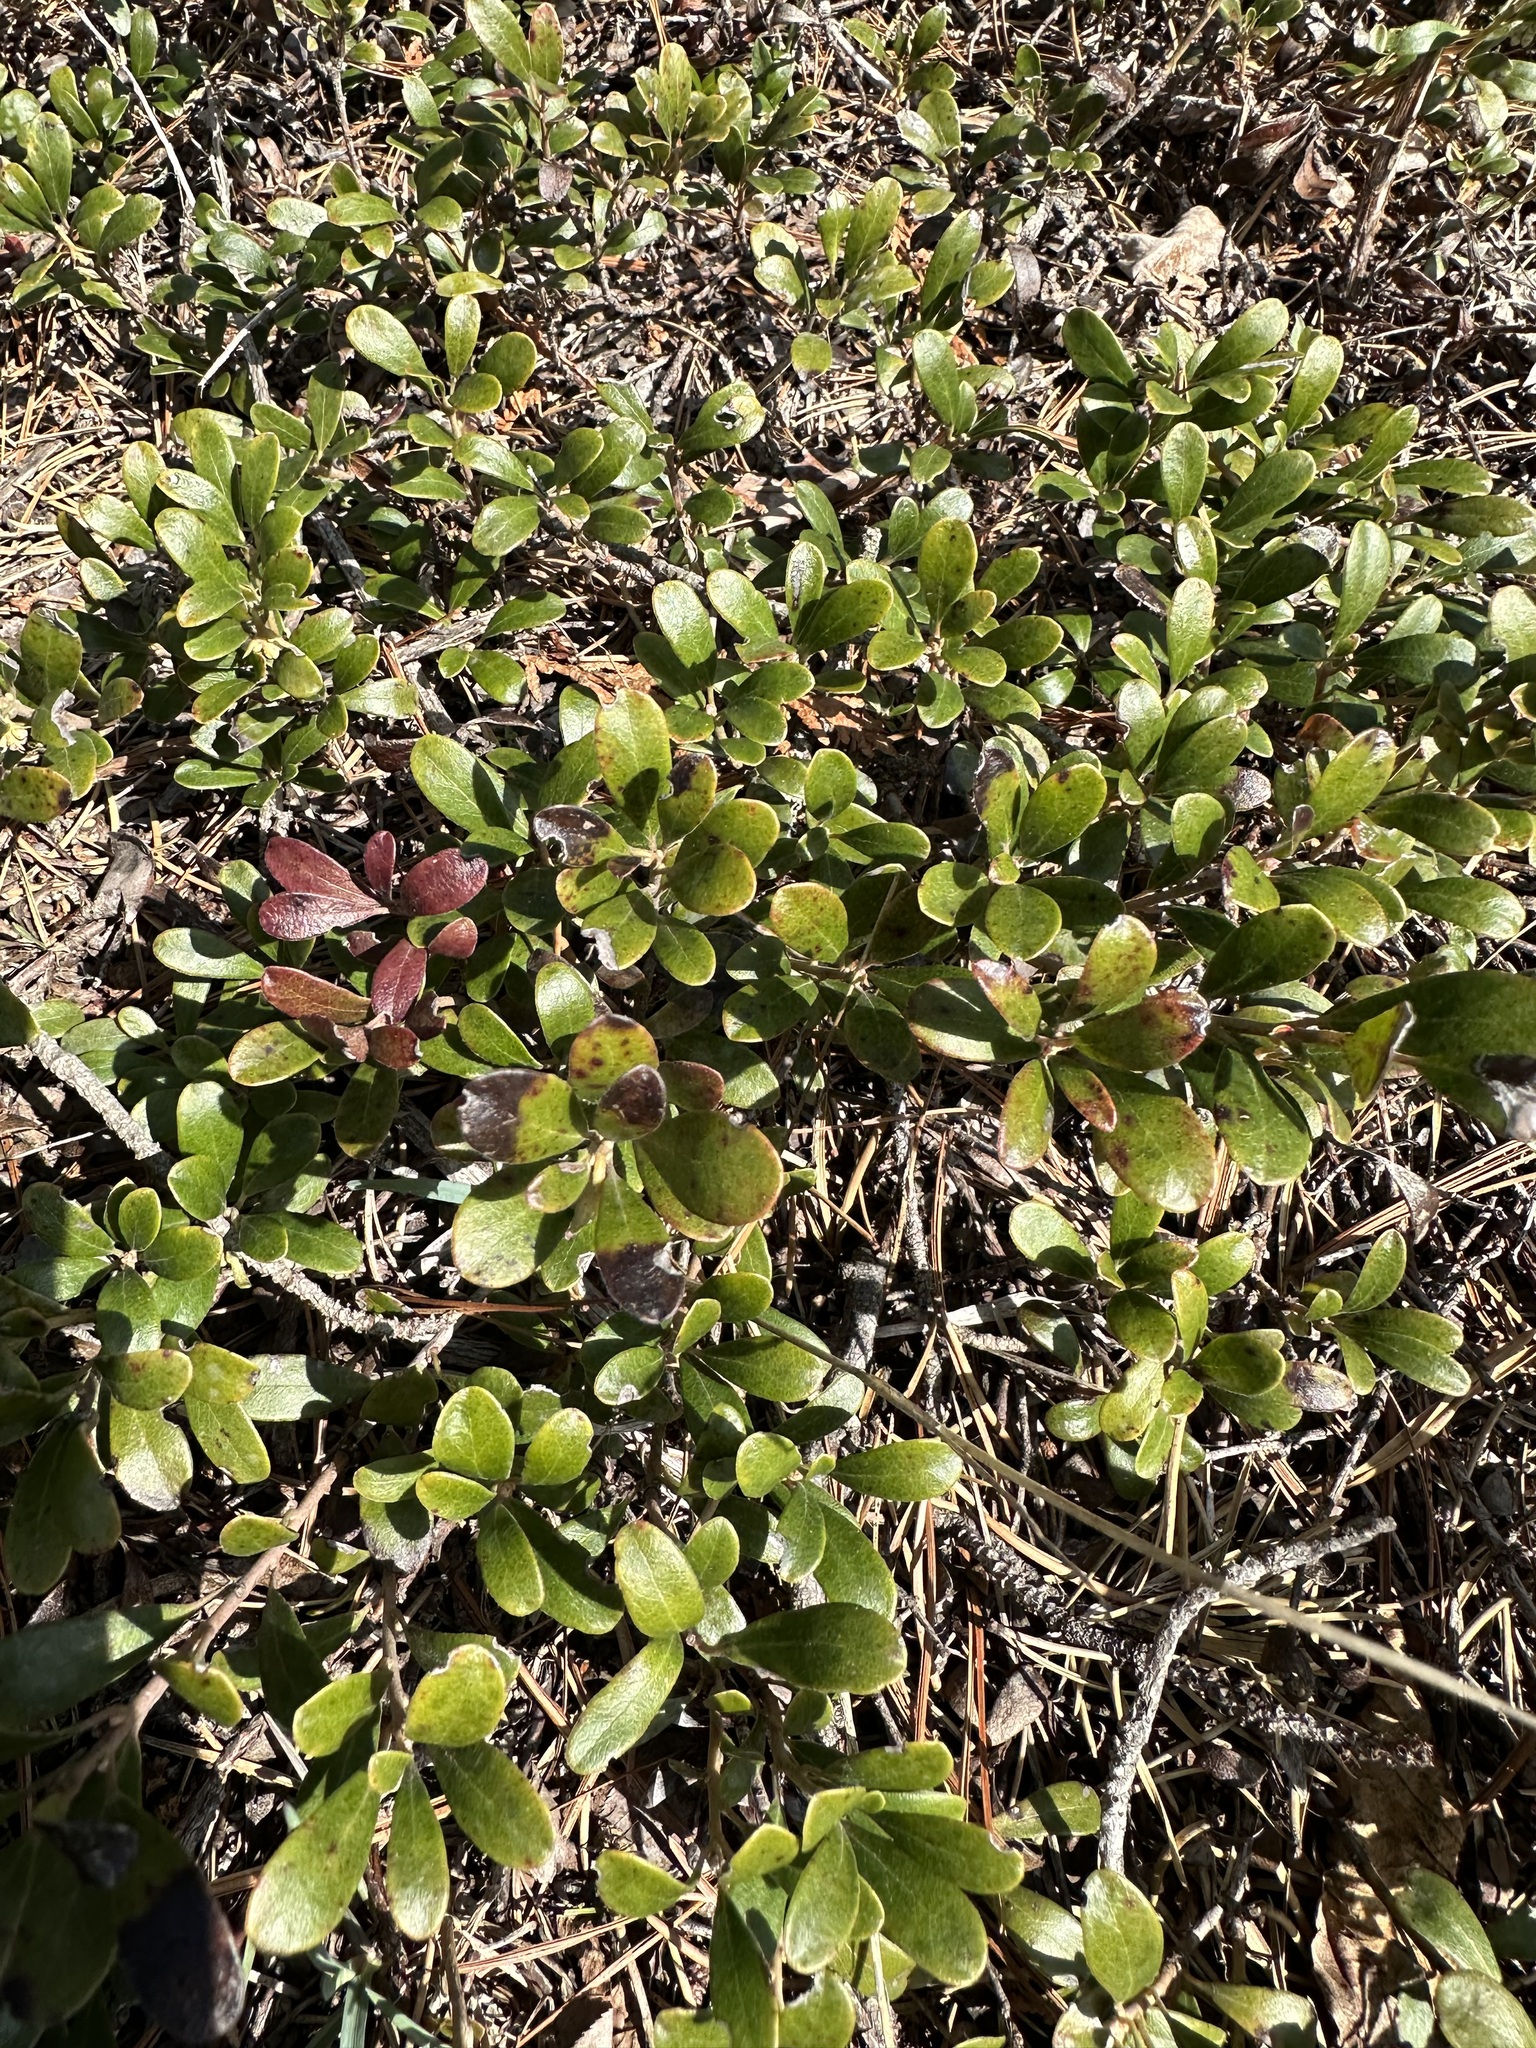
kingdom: Plantae
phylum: Tracheophyta
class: Magnoliopsida
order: Ericales
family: Ericaceae
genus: Arctostaphylos
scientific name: Arctostaphylos uva-ursi
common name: Bearberry
